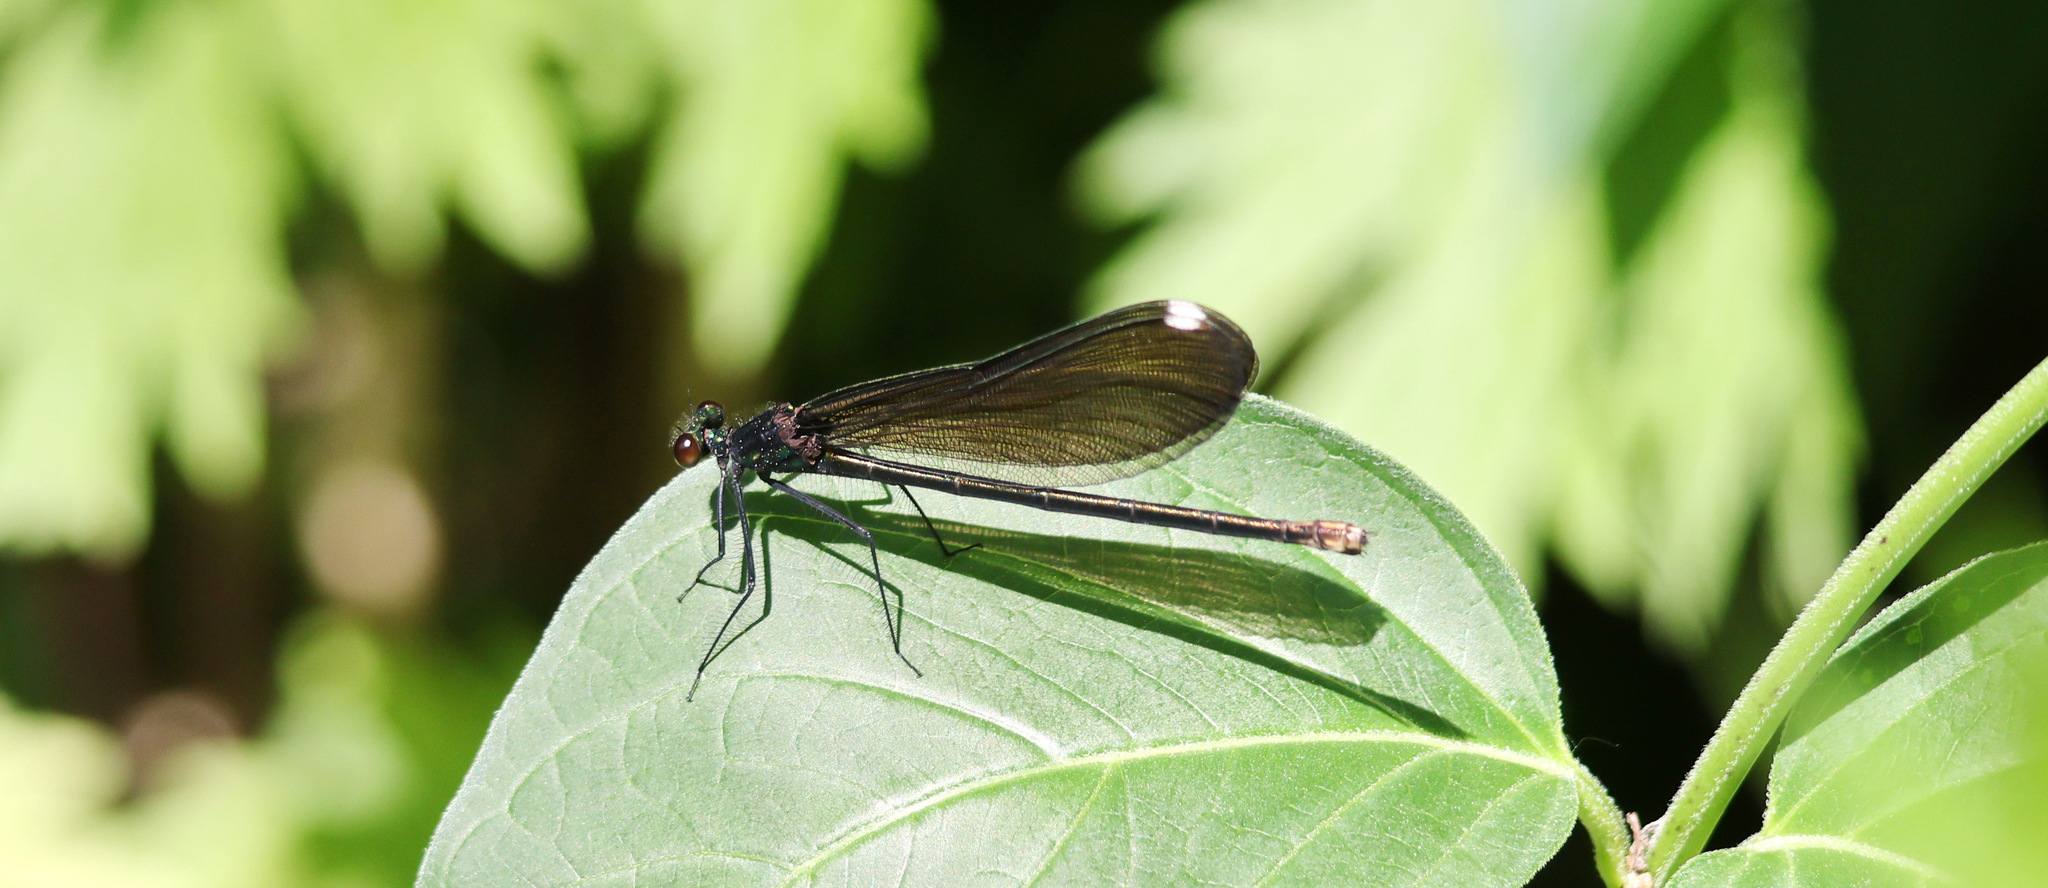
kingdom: Animalia
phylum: Arthropoda
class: Insecta
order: Odonata
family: Calopterygidae
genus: Calopteryx
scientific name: Calopteryx maculata
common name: Ebony jewelwing
